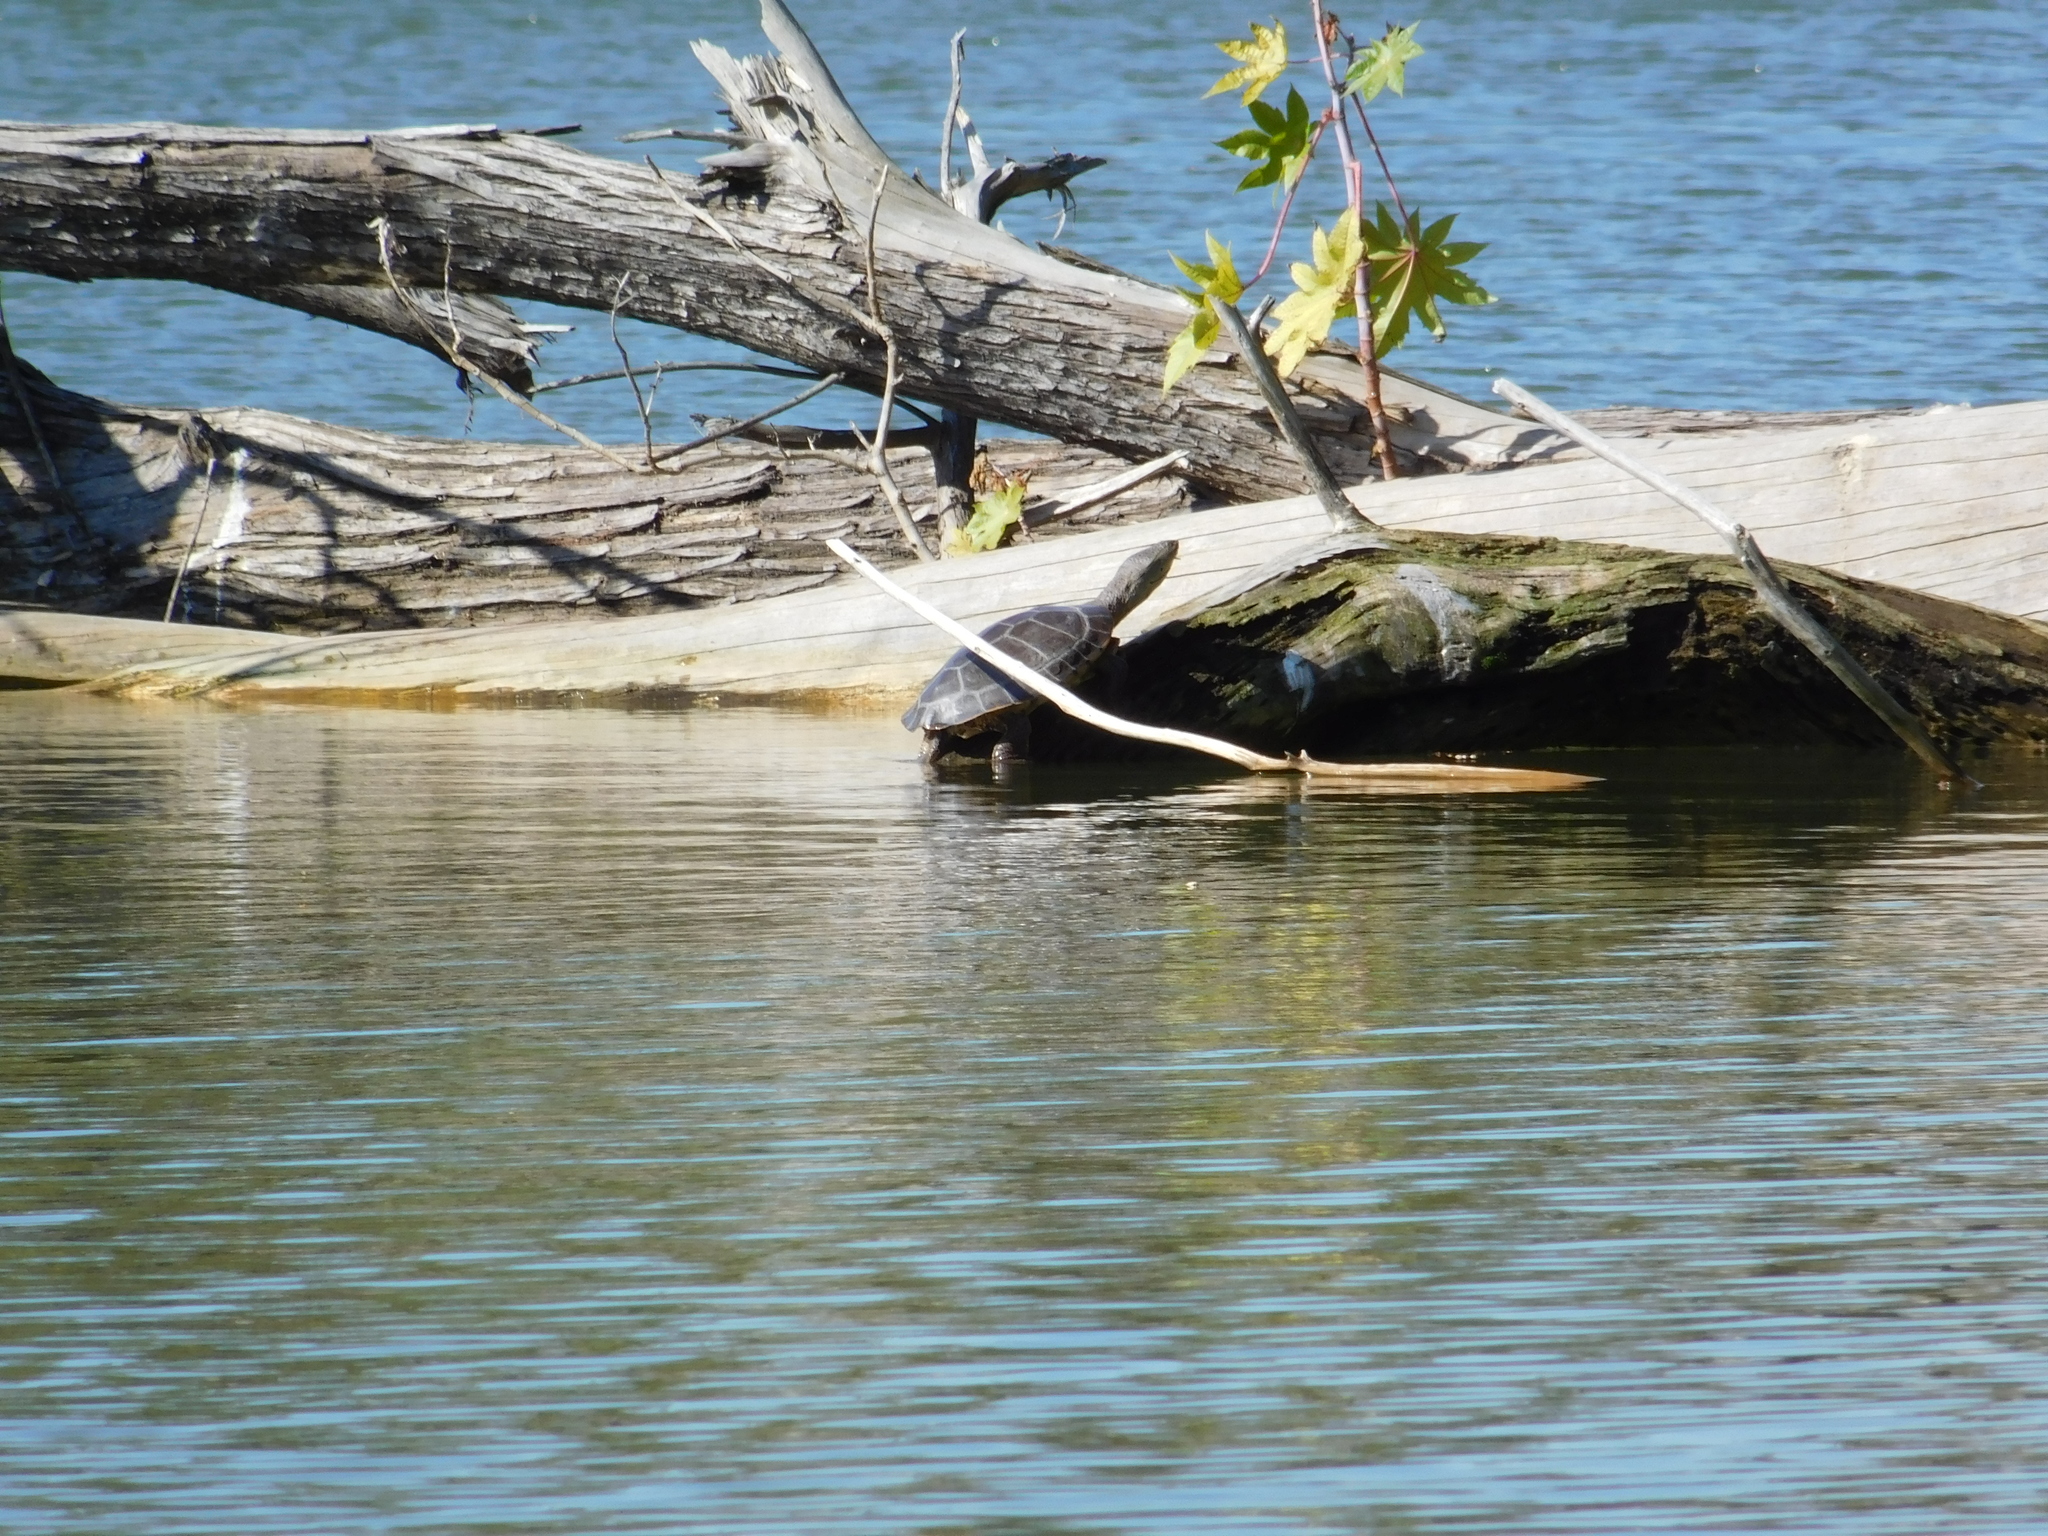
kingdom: Animalia
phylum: Chordata
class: Testudines
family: Chelidae
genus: Phrynops
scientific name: Phrynops hilarii
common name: Side-necked turtle of saint hillaire
